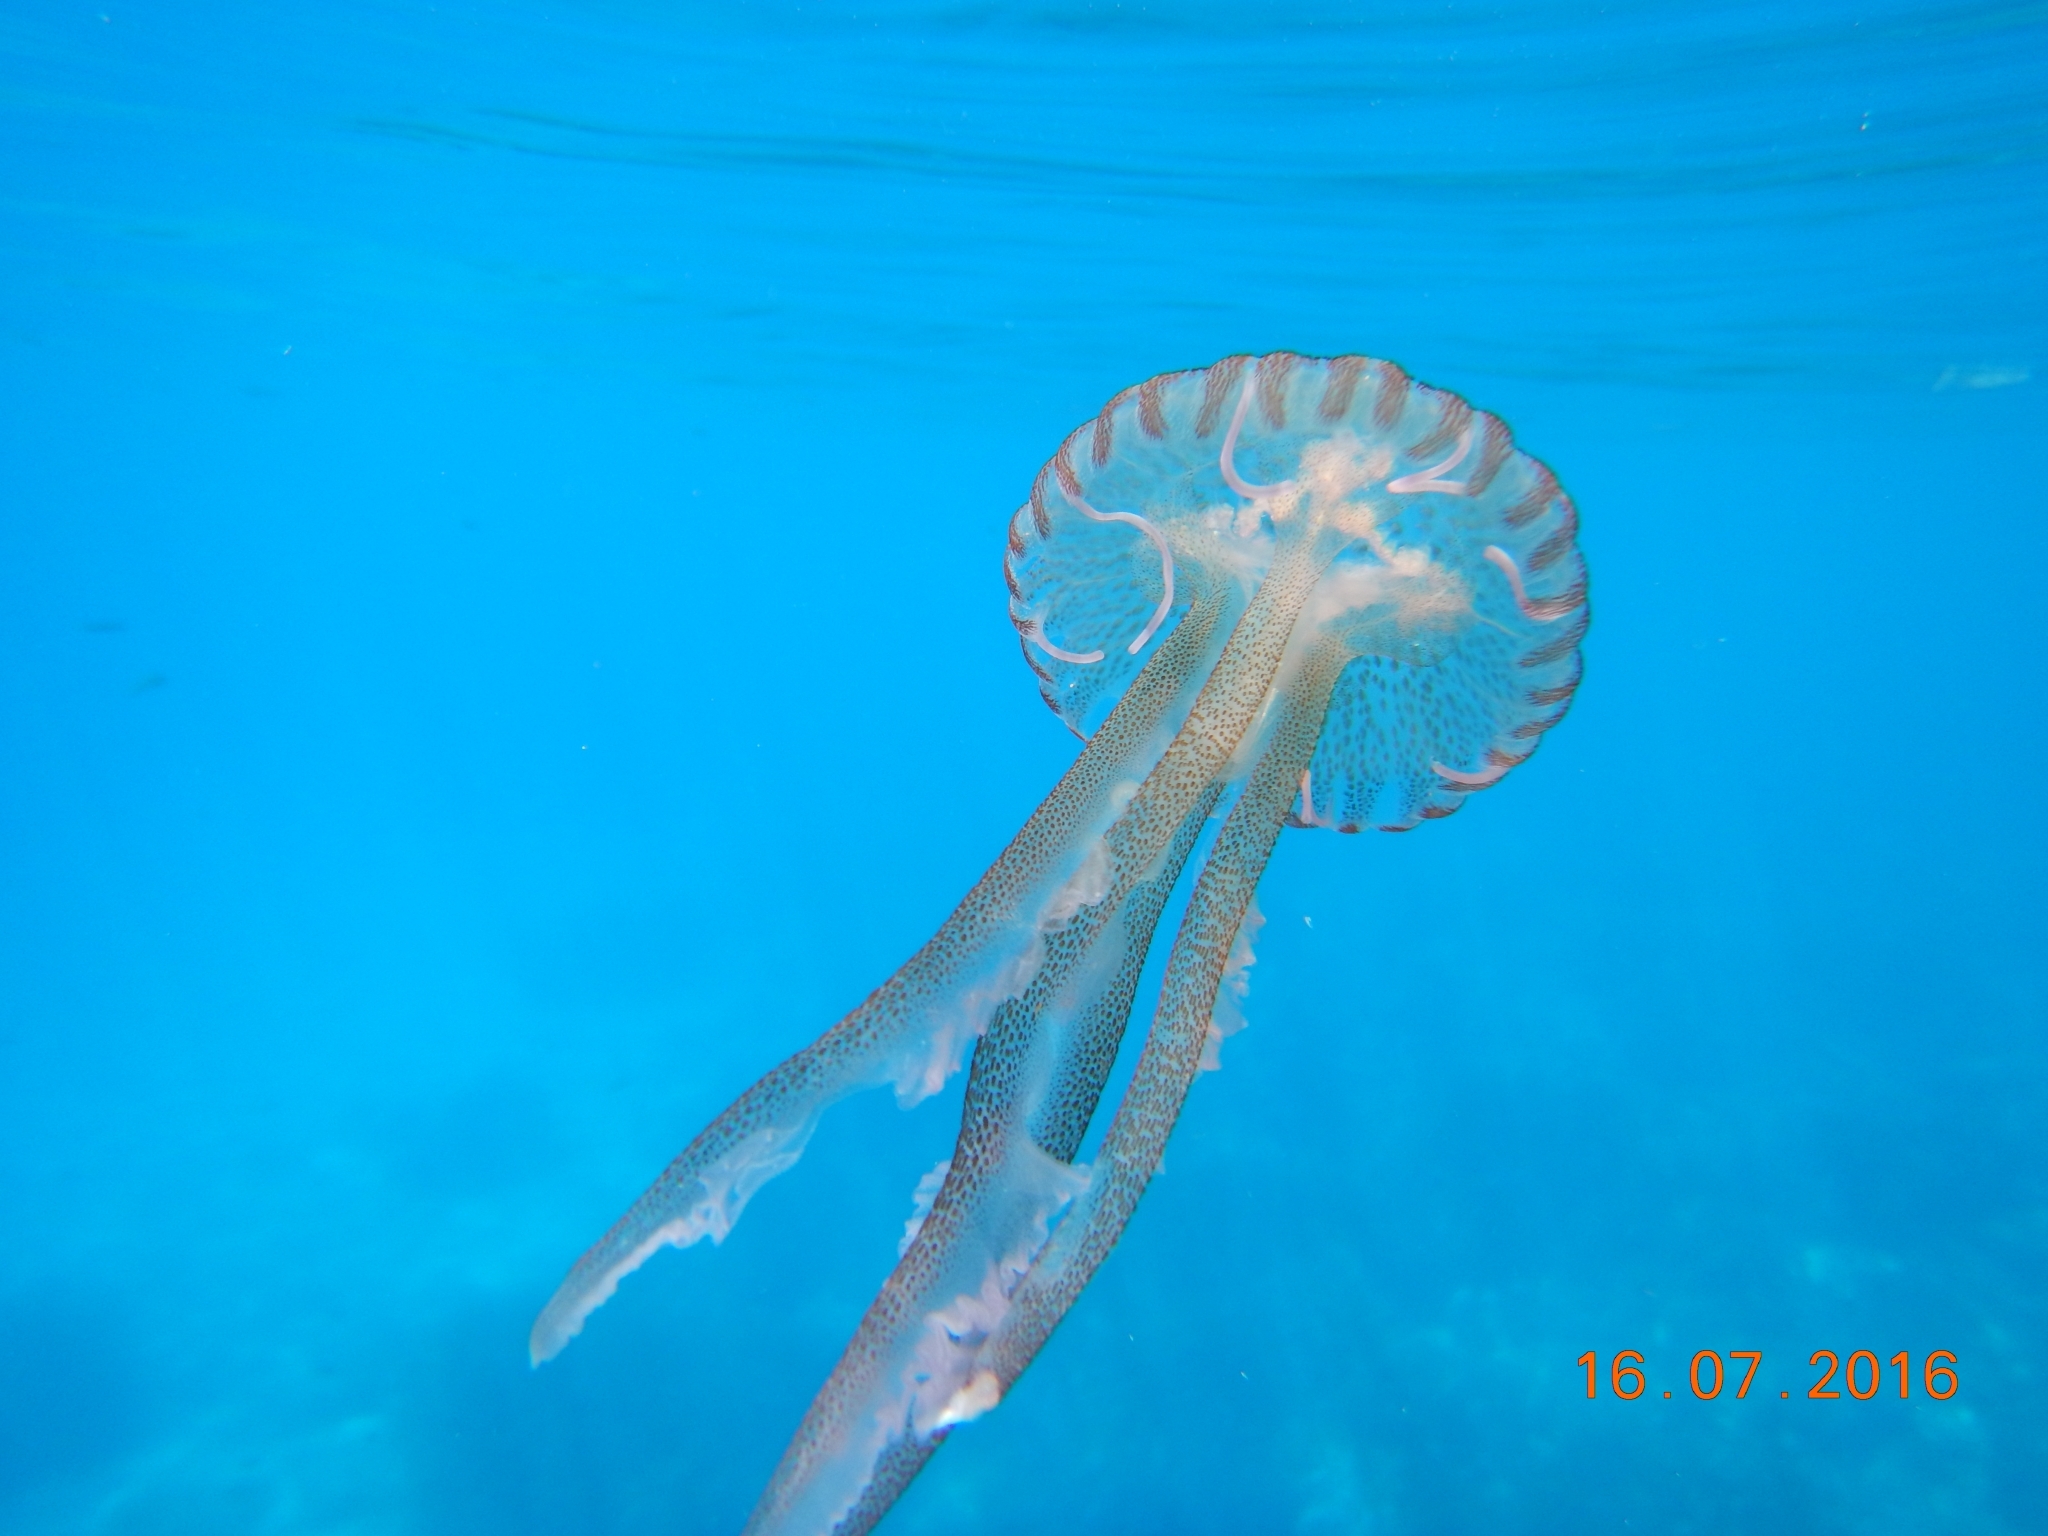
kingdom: Animalia
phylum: Cnidaria
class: Scyphozoa
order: Semaeostomeae
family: Pelagiidae
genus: Pelagia
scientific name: Pelagia noctiluca
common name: Mauve stinger
